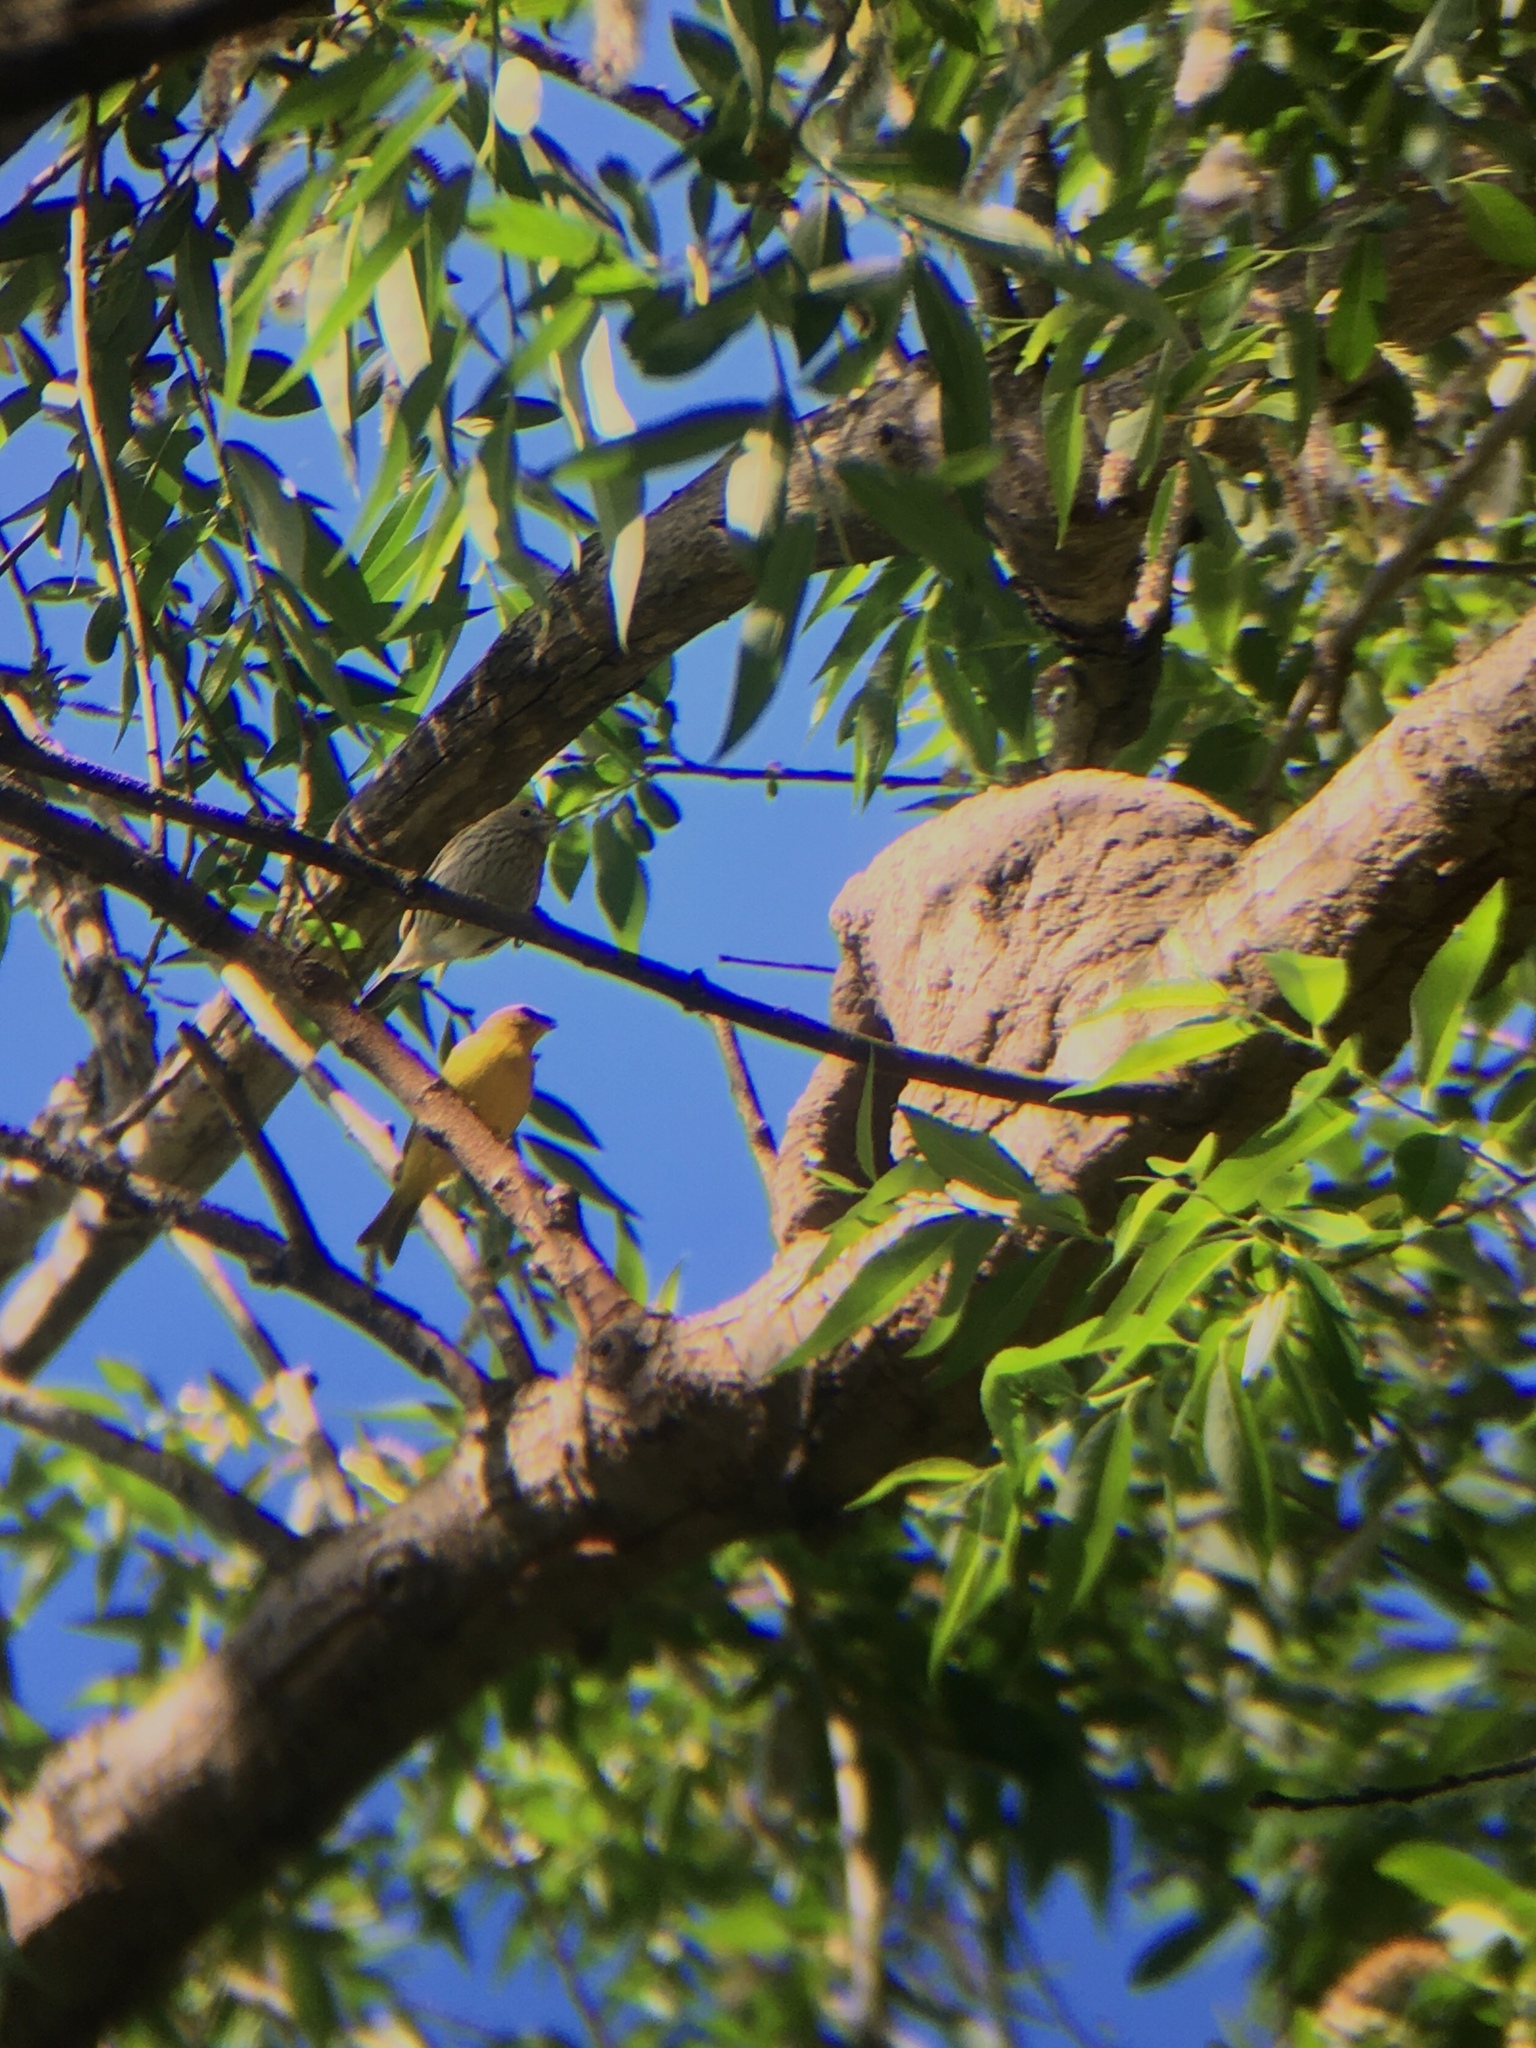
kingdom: Animalia
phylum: Chordata
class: Aves
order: Passeriformes
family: Thraupidae
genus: Sicalis
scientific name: Sicalis flaveola
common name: Saffron finch
